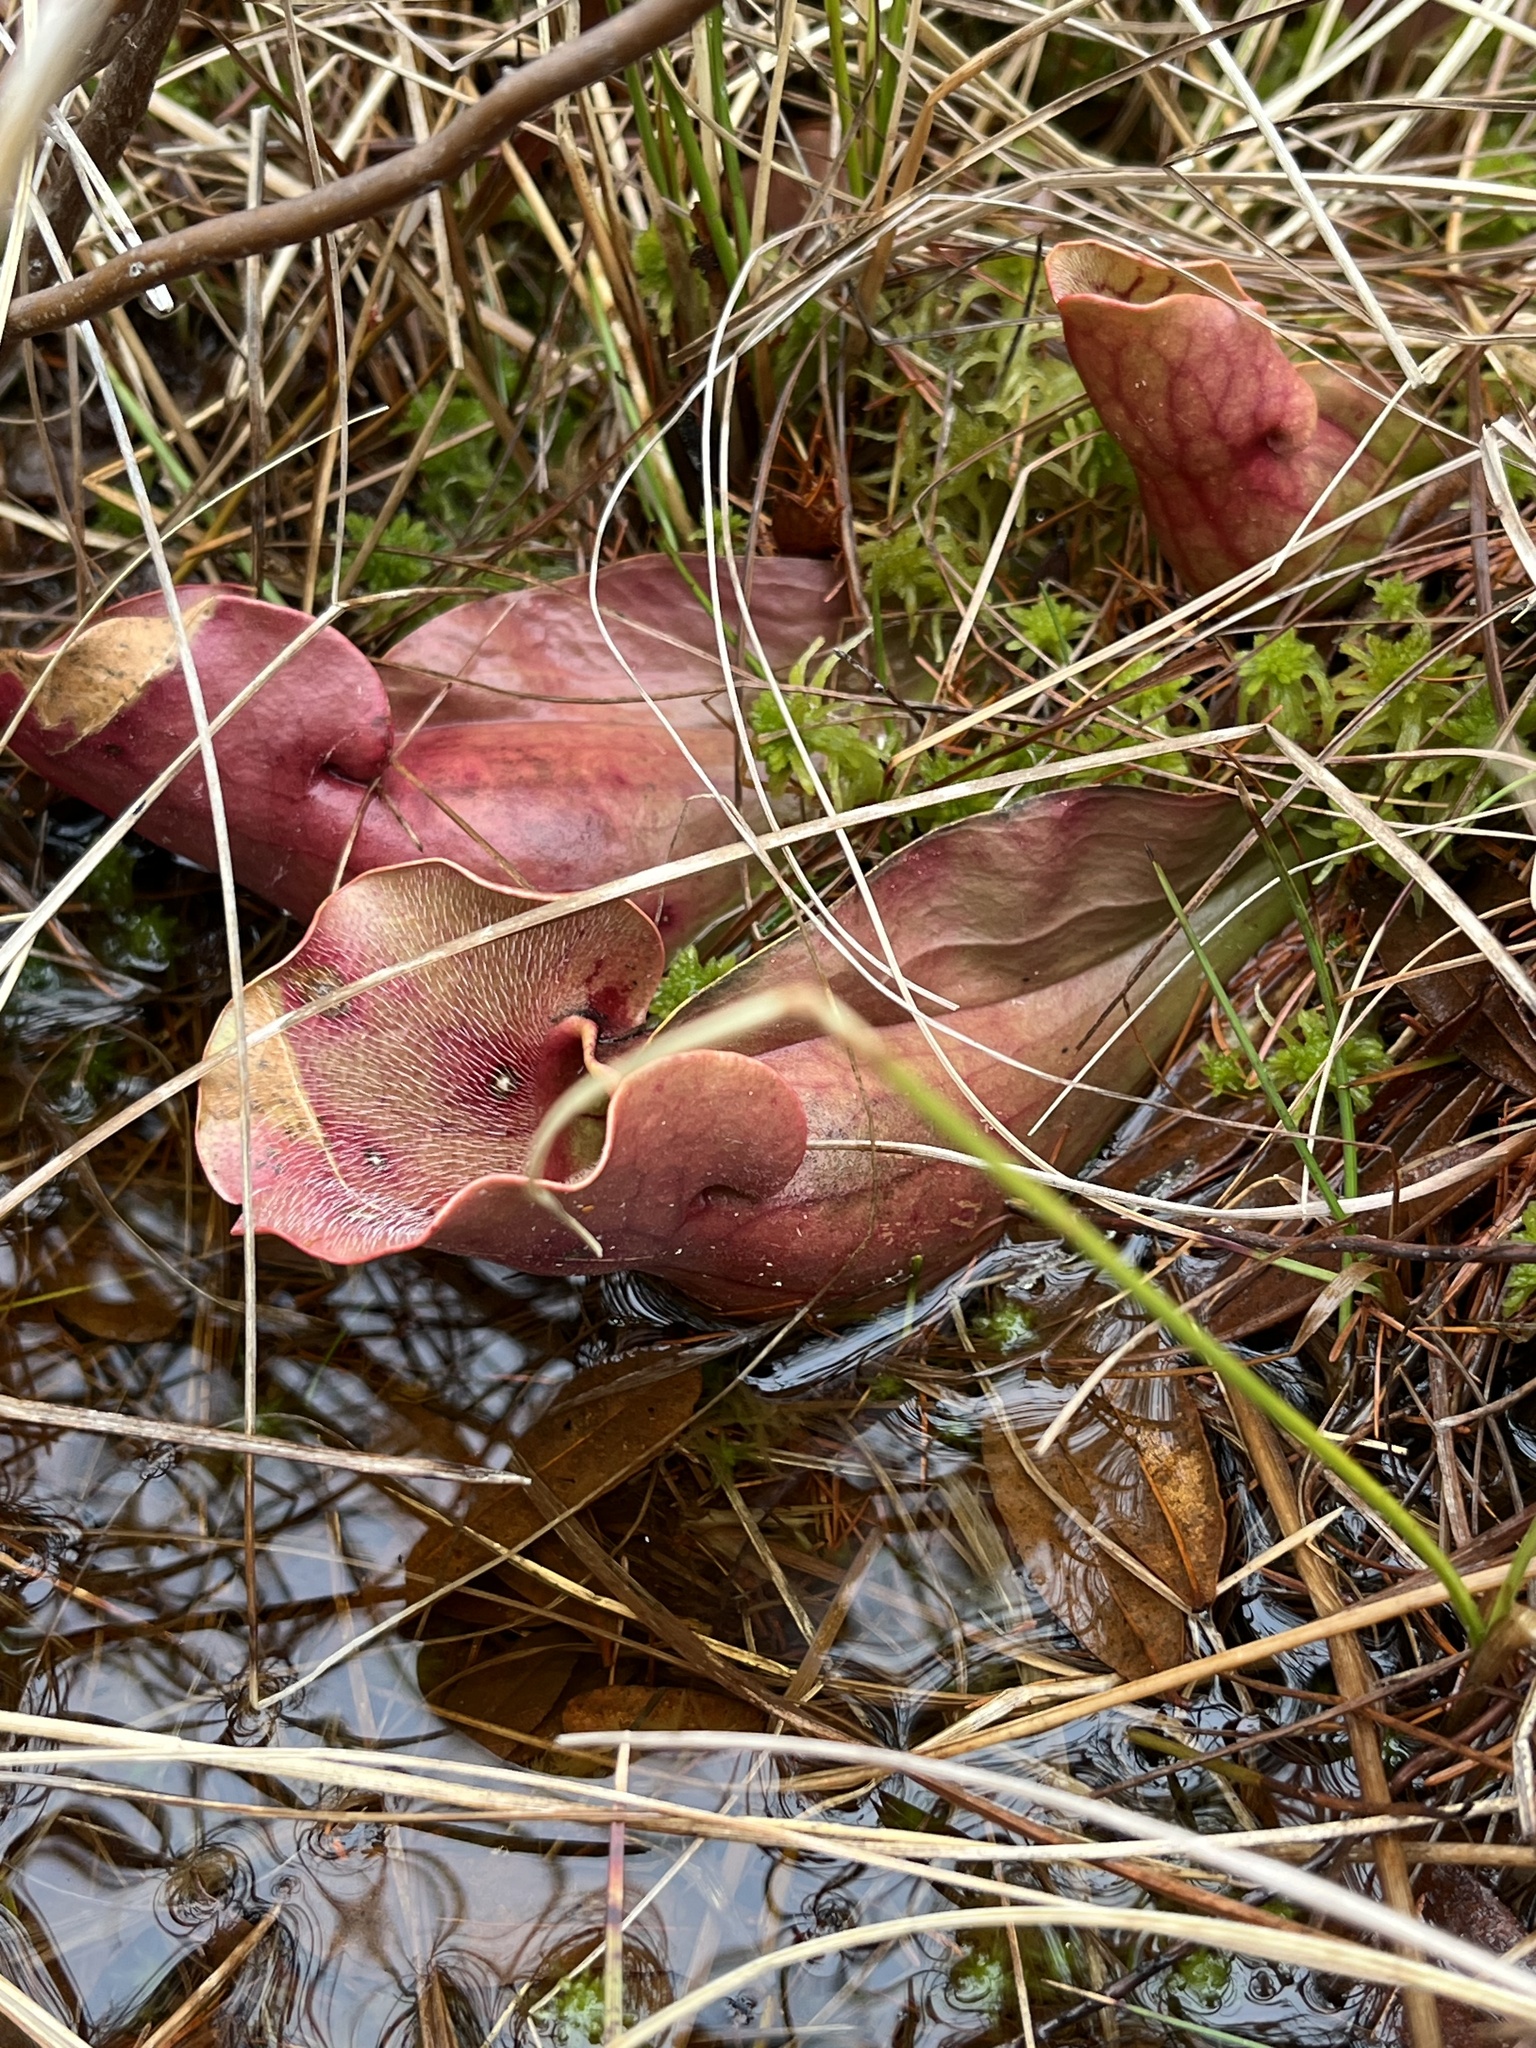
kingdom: Plantae
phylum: Tracheophyta
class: Magnoliopsida
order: Ericales
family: Sarraceniaceae
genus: Sarracenia
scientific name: Sarracenia purpurea
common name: Pitcherplant
